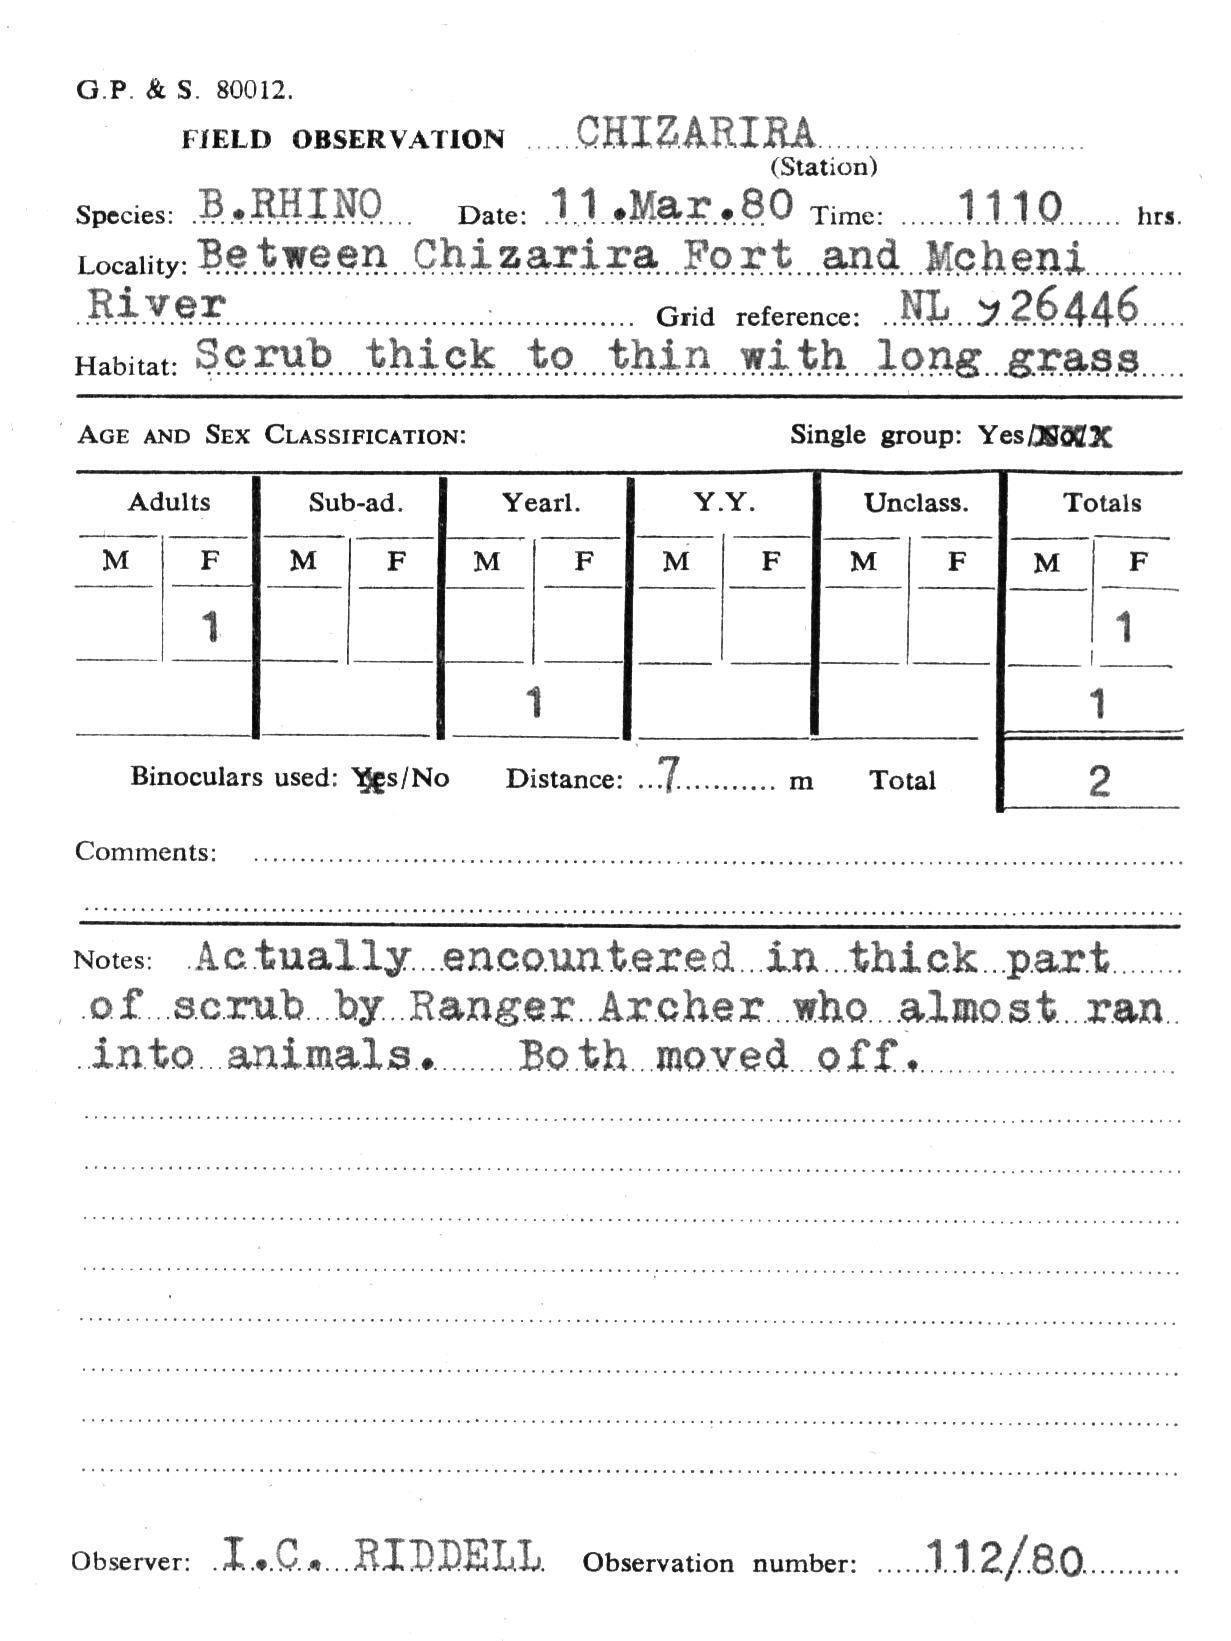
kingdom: Animalia
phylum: Chordata
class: Mammalia
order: Perissodactyla
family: Rhinocerotidae
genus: Diceros
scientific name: Diceros bicornis
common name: Black rhinoceros
